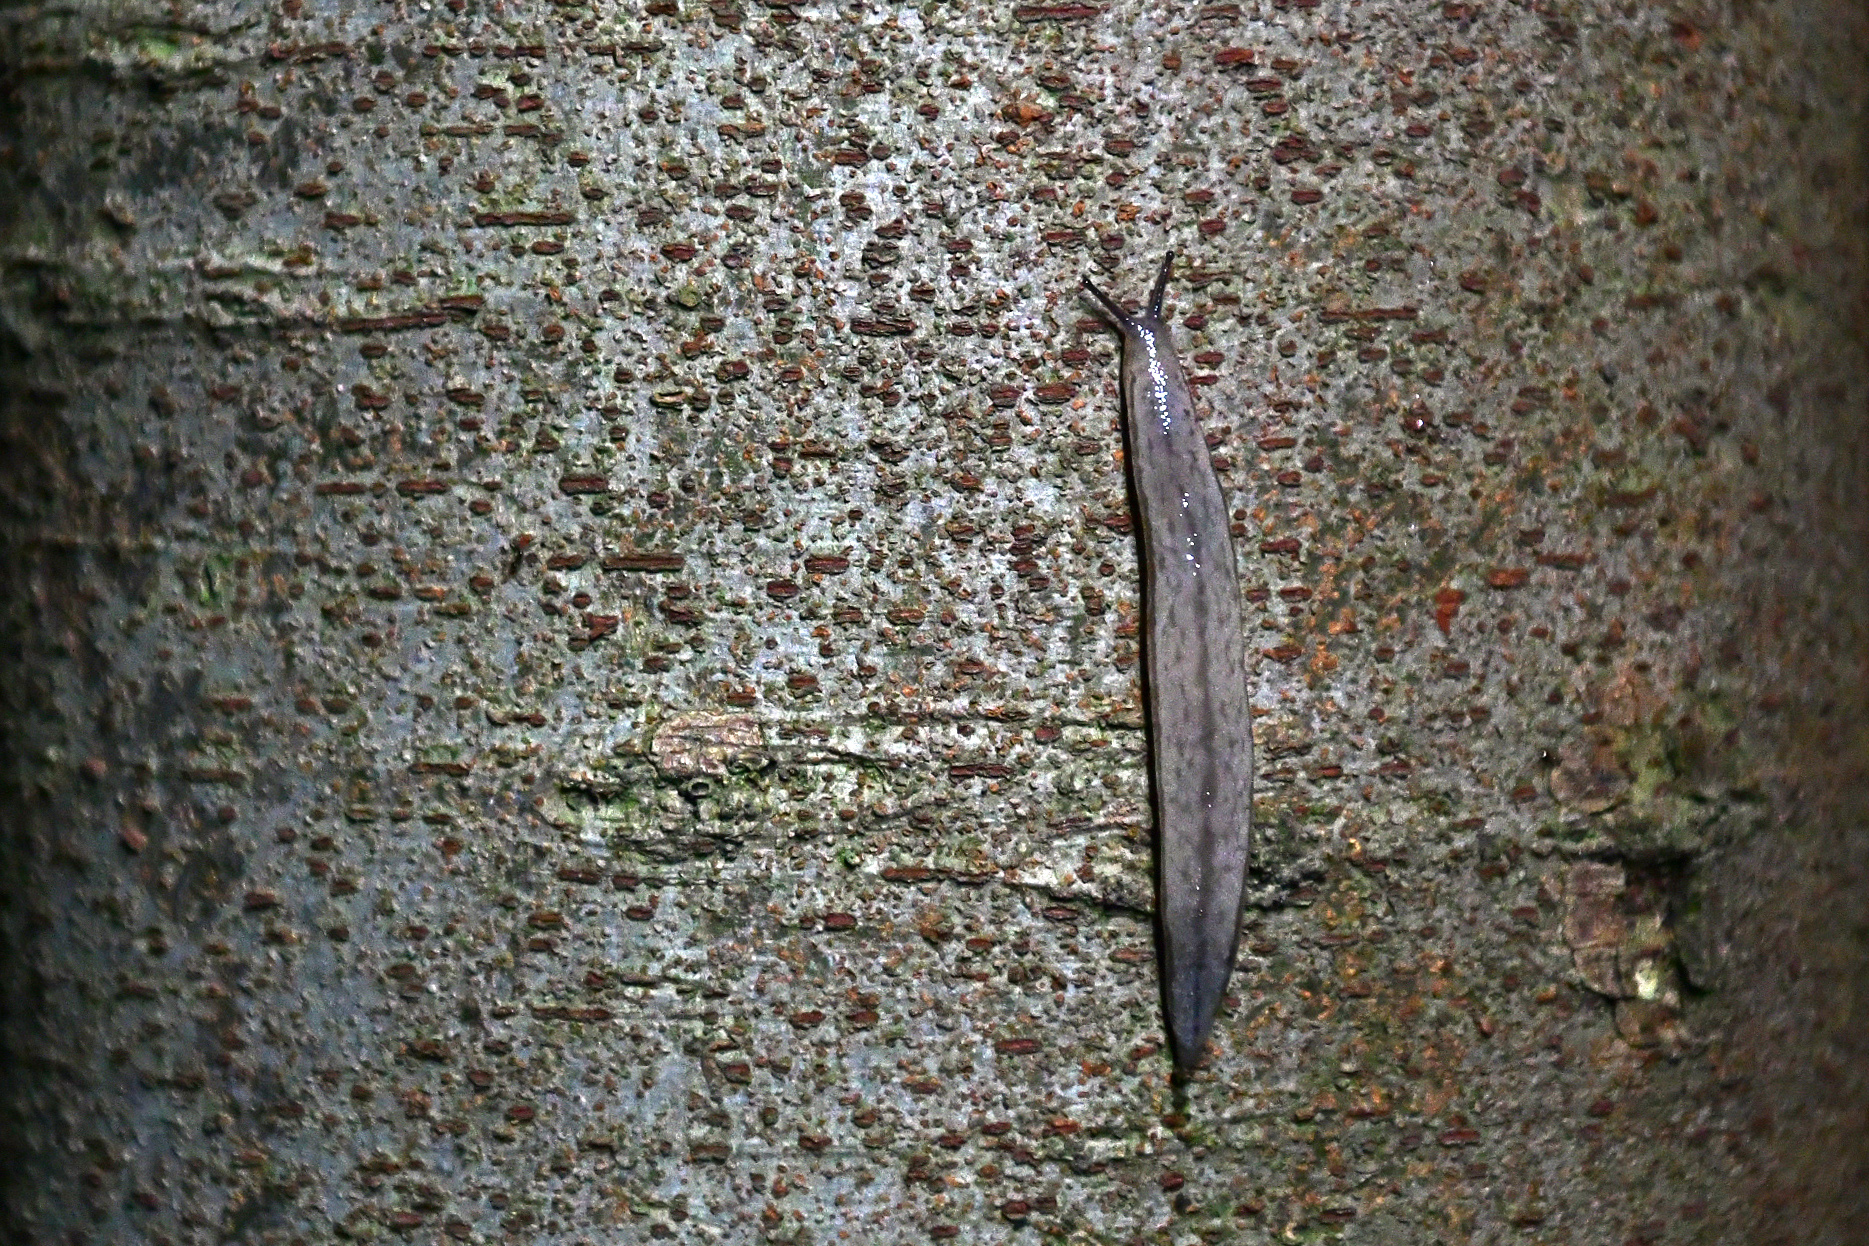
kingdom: Animalia
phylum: Mollusca
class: Gastropoda
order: Stylommatophora
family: Philomycidae
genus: Meghimatium
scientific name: Meghimatium bilineatum
